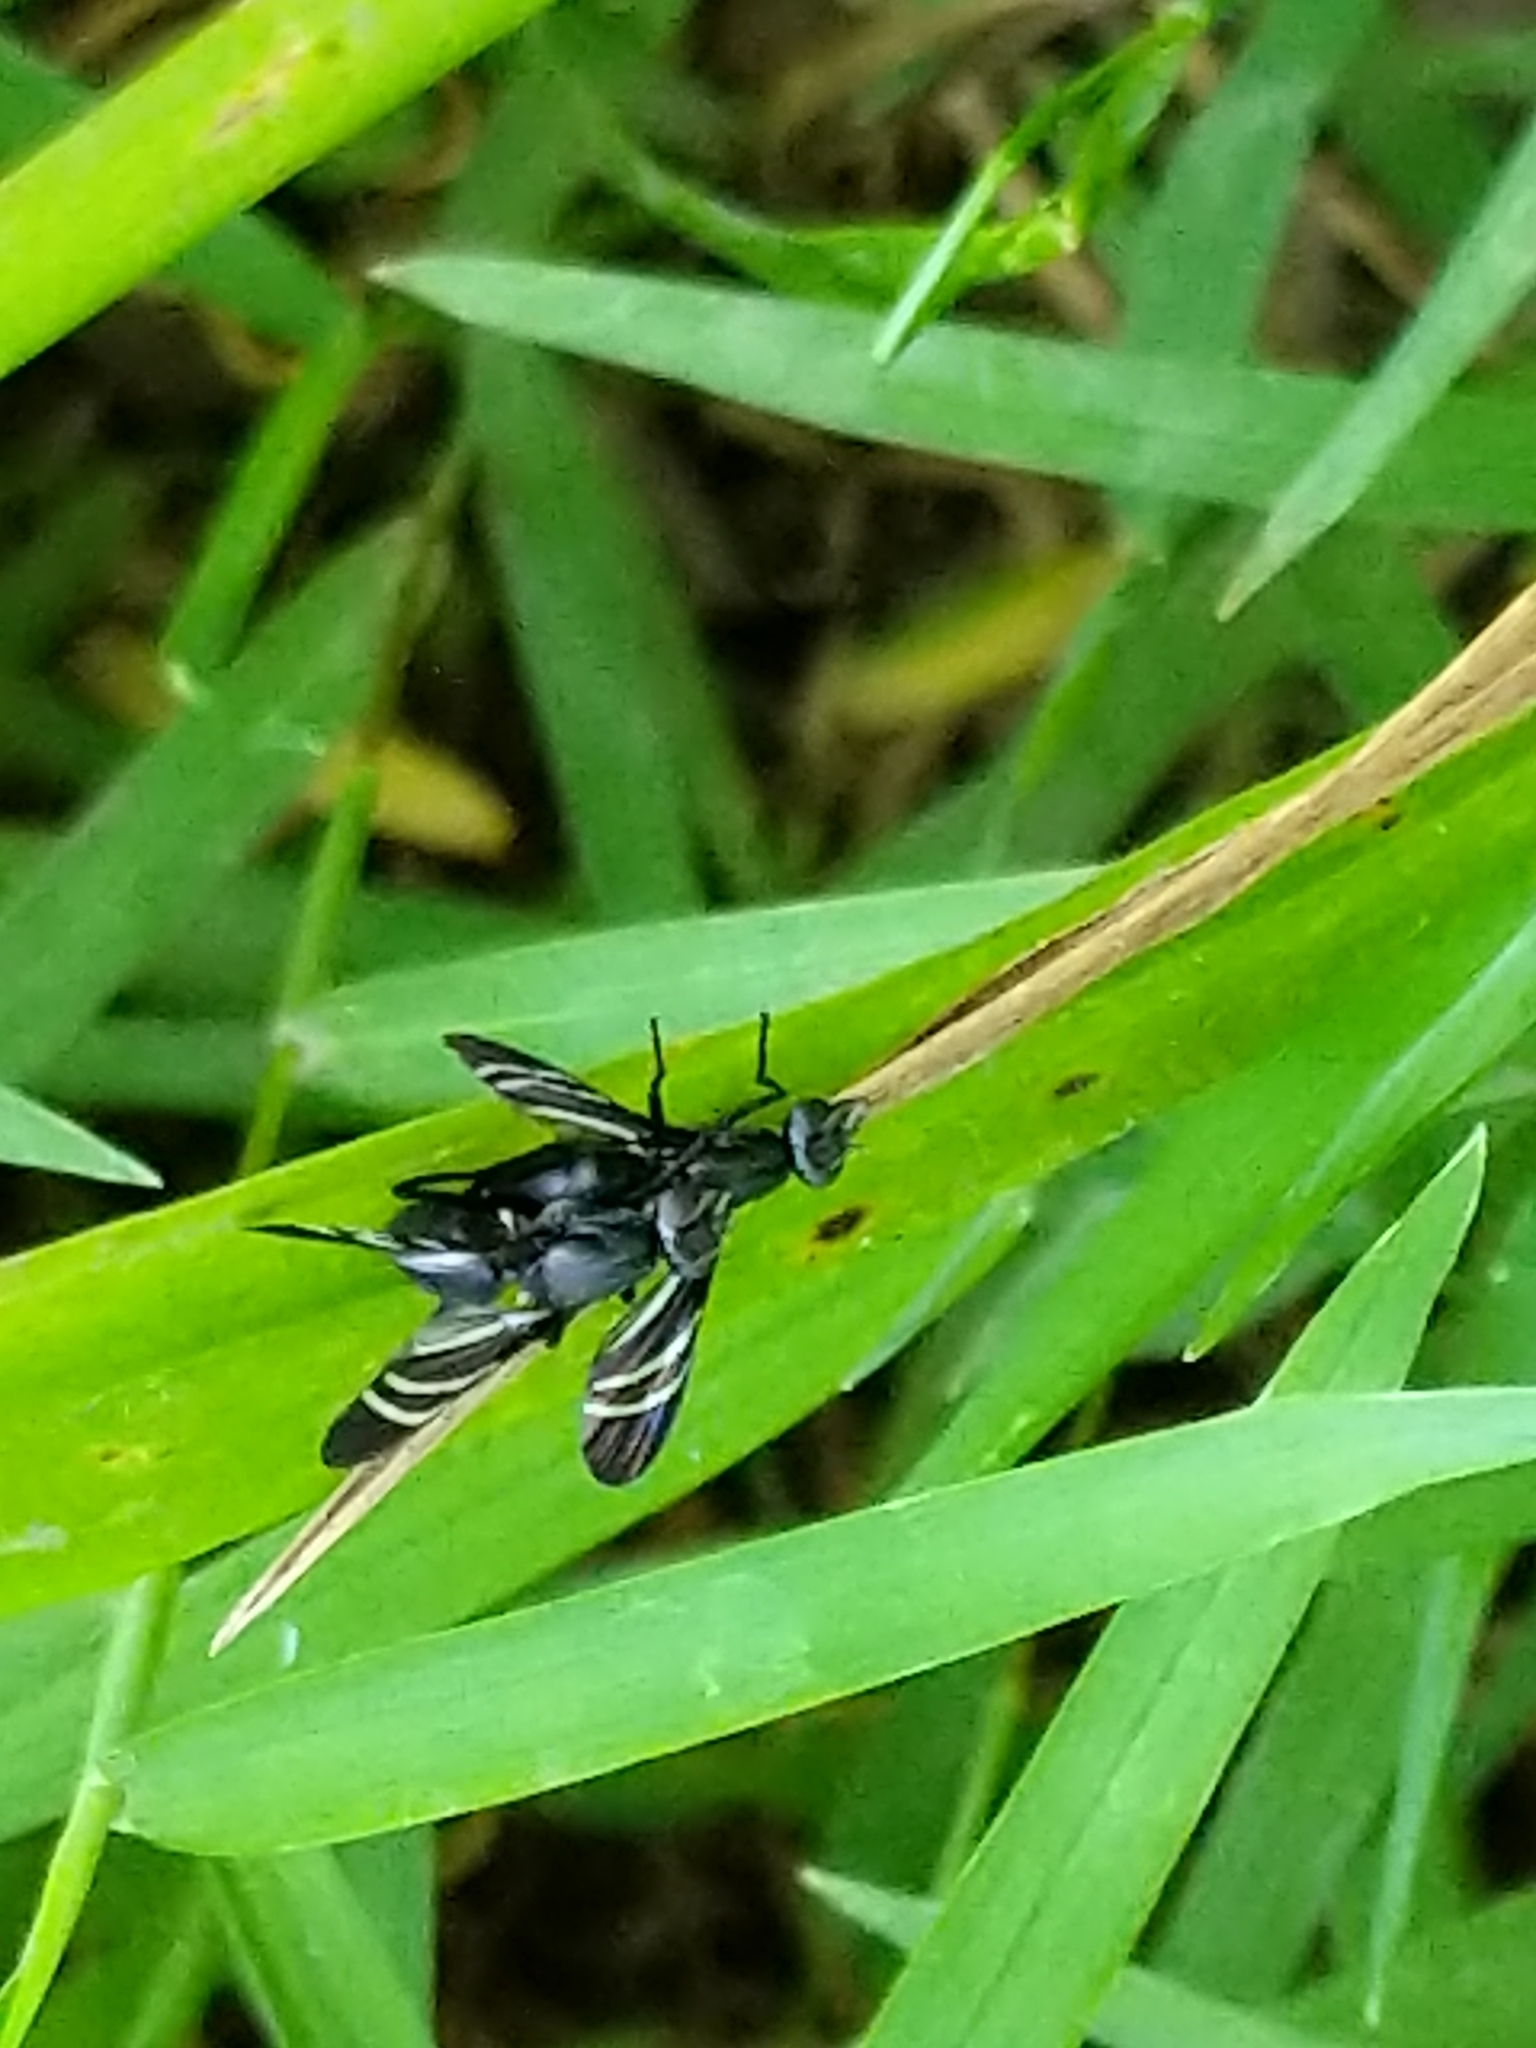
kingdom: Animalia
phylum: Arthropoda
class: Insecta
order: Diptera
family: Ulidiidae
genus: Tritoxa
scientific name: Tritoxa flexa
